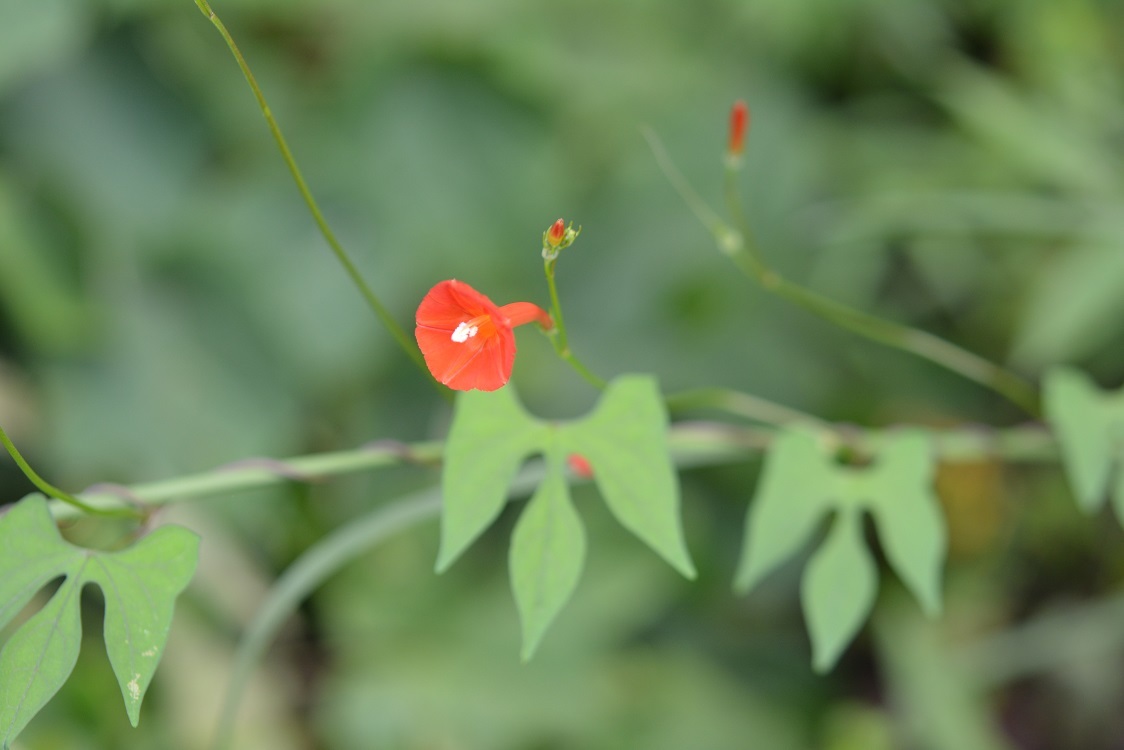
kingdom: Plantae
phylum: Tracheophyta
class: Magnoliopsida
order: Solanales
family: Convolvulaceae
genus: Ipomoea
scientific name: Ipomoea hederifolia
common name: Ivy-leaf morning-glory
